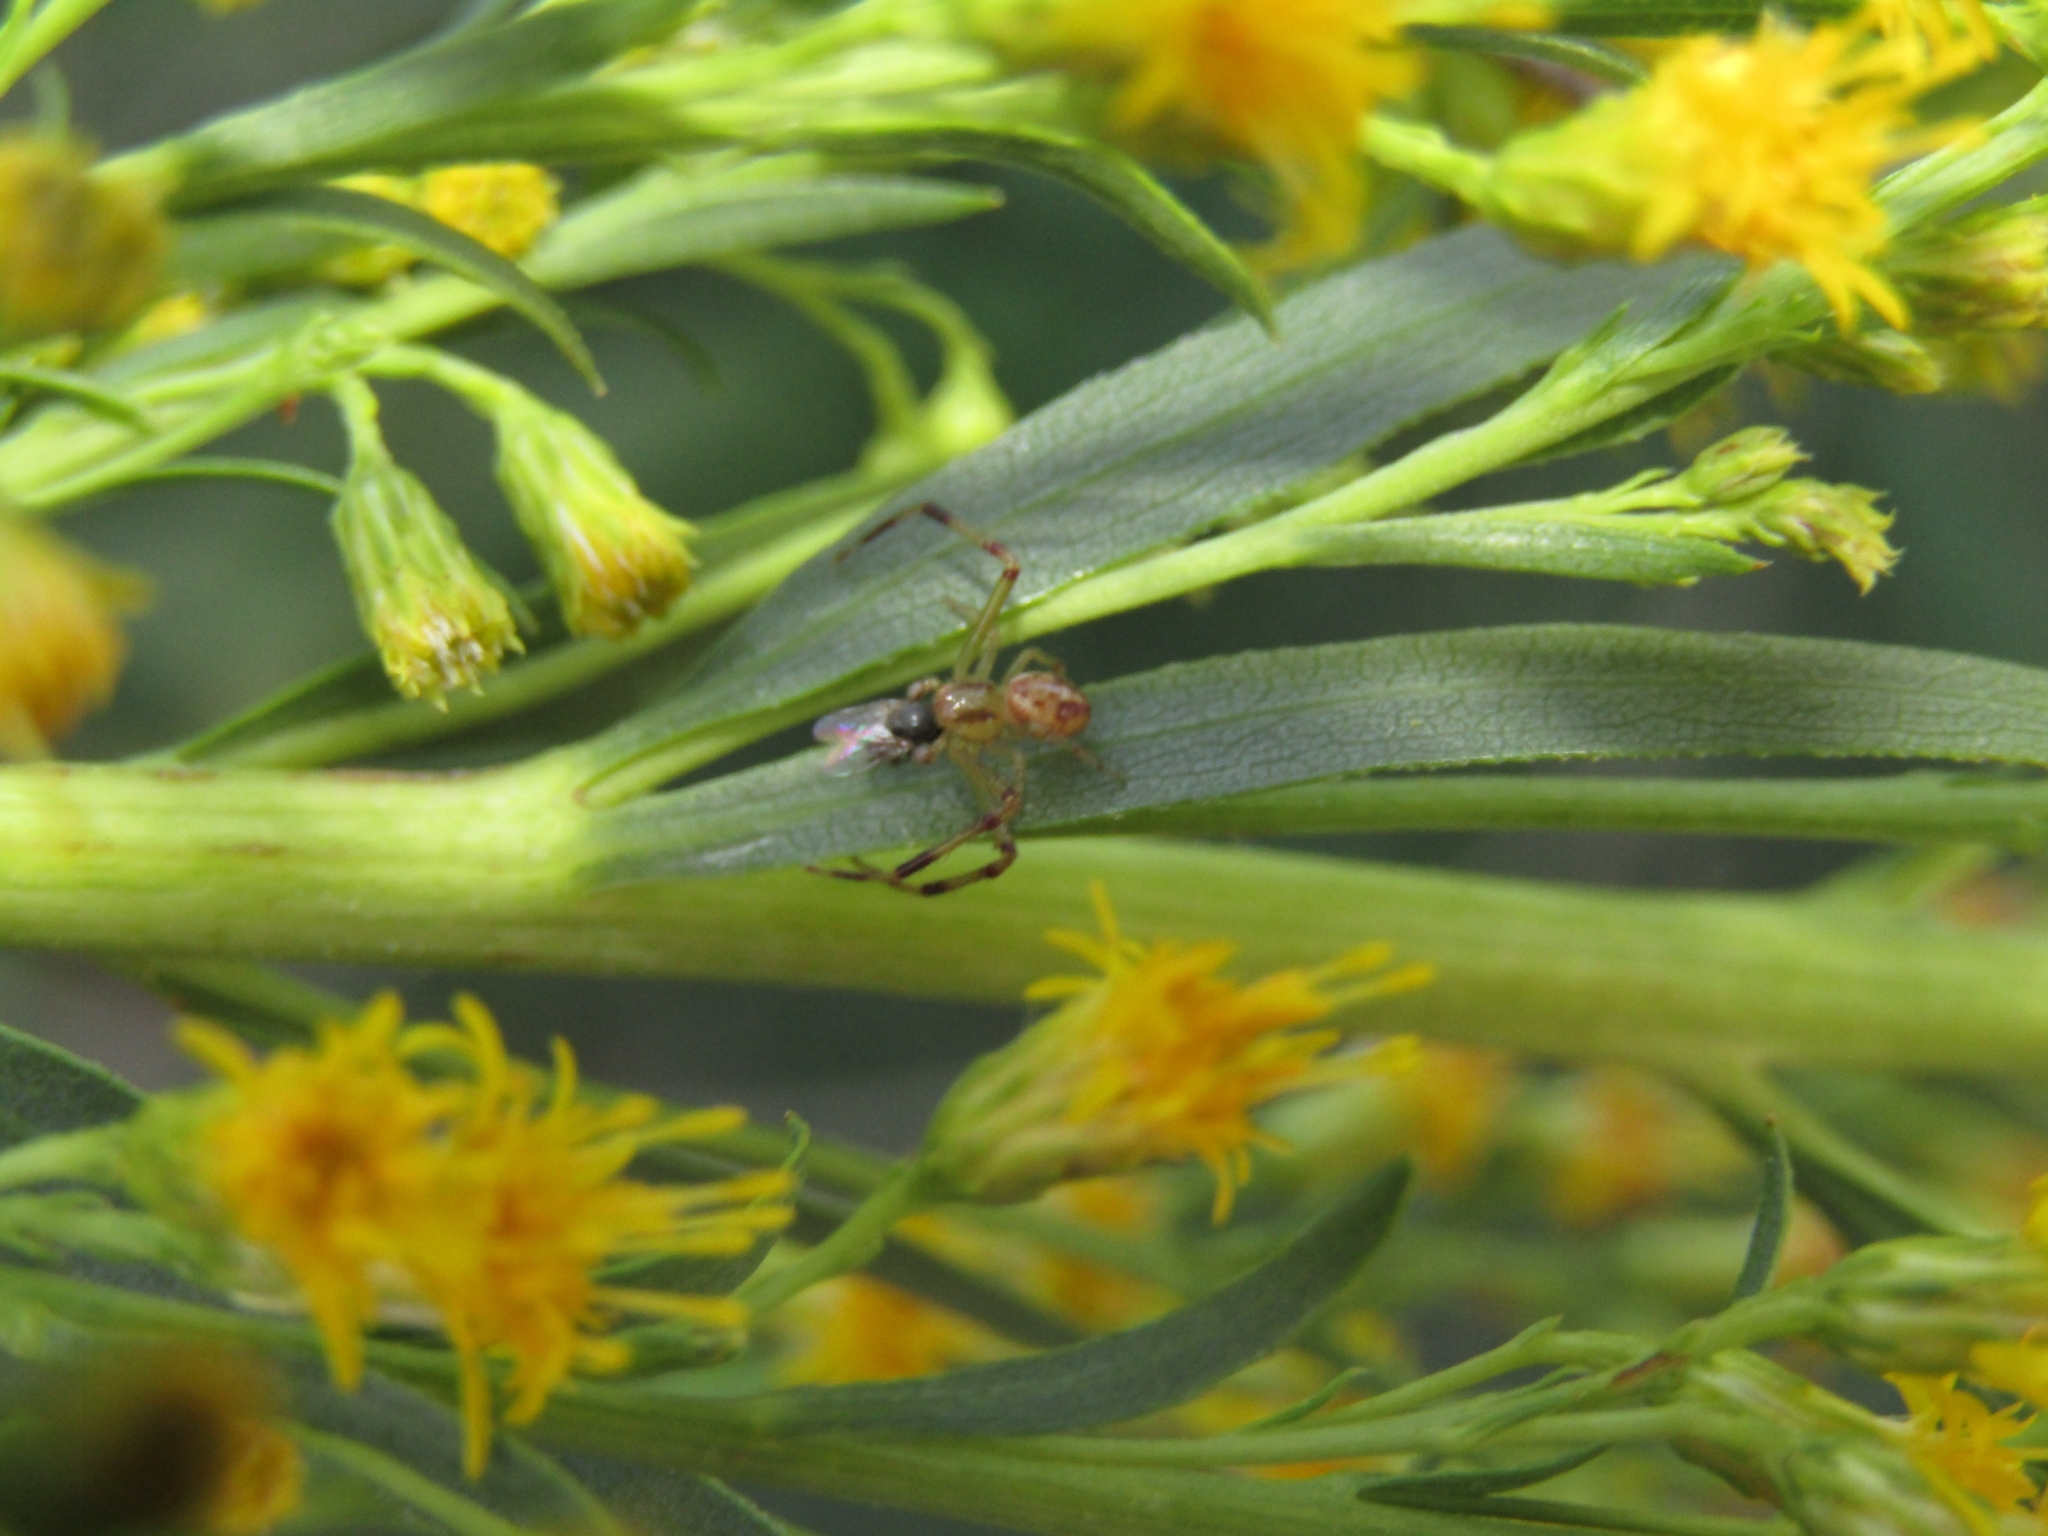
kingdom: Animalia
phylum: Arthropoda
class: Arachnida
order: Araneae
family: Thomisidae
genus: Misumenops
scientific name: Misumenops
